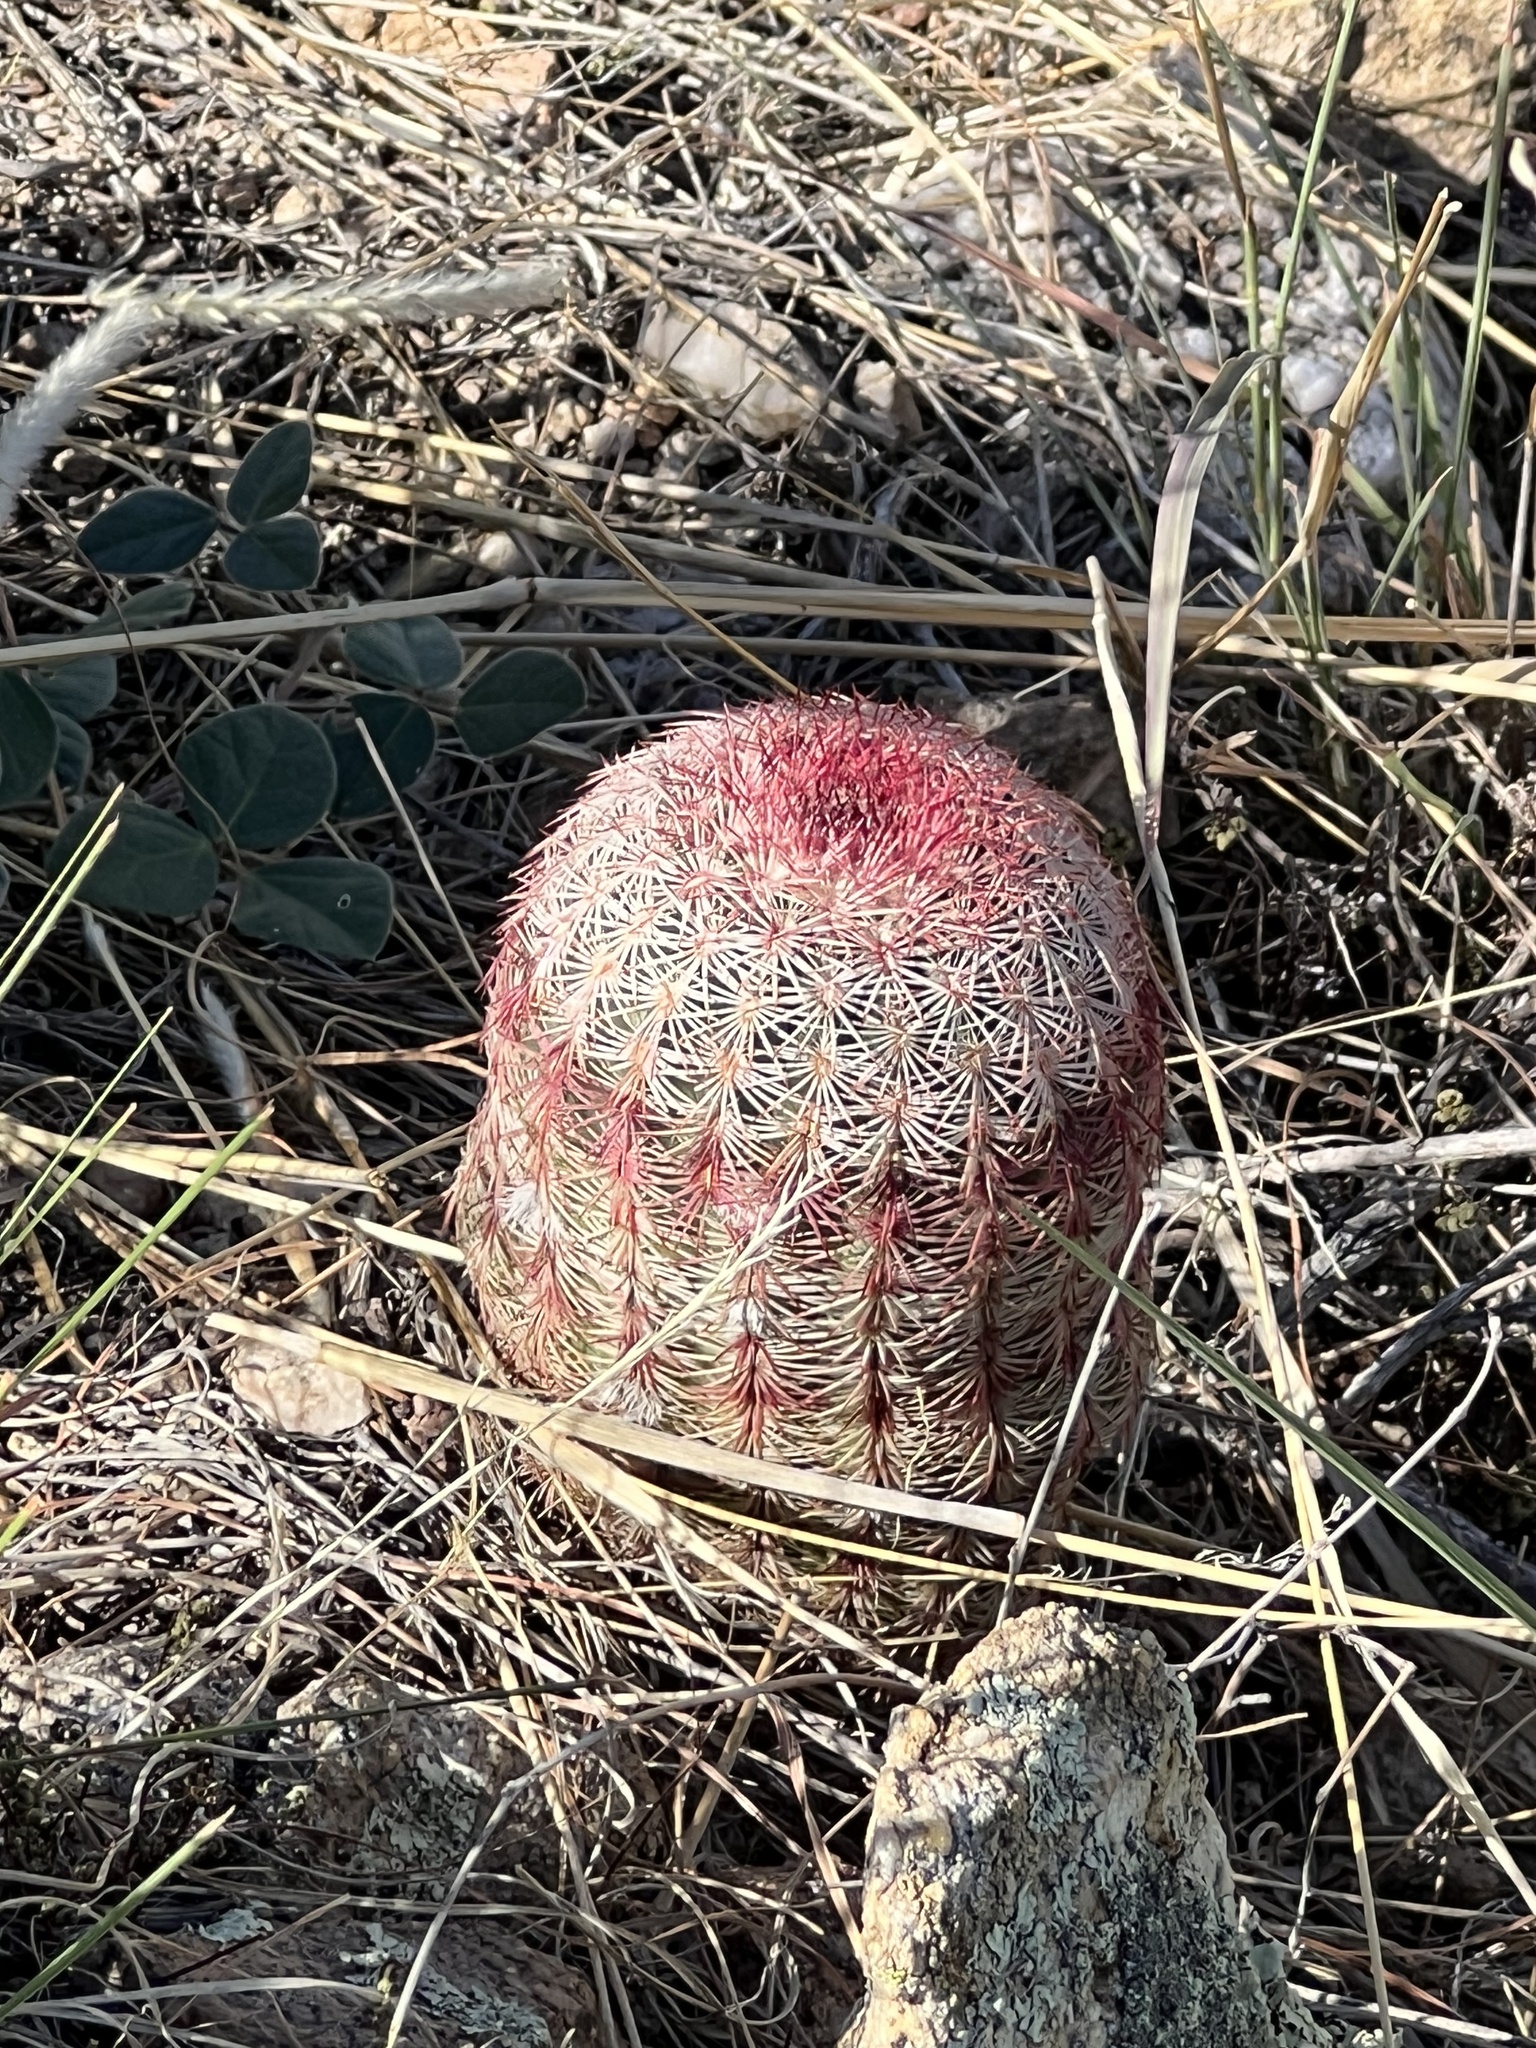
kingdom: Plantae
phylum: Tracheophyta
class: Magnoliopsida
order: Caryophyllales
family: Cactaceae
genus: Echinocereus
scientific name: Echinocereus rigidissimus
